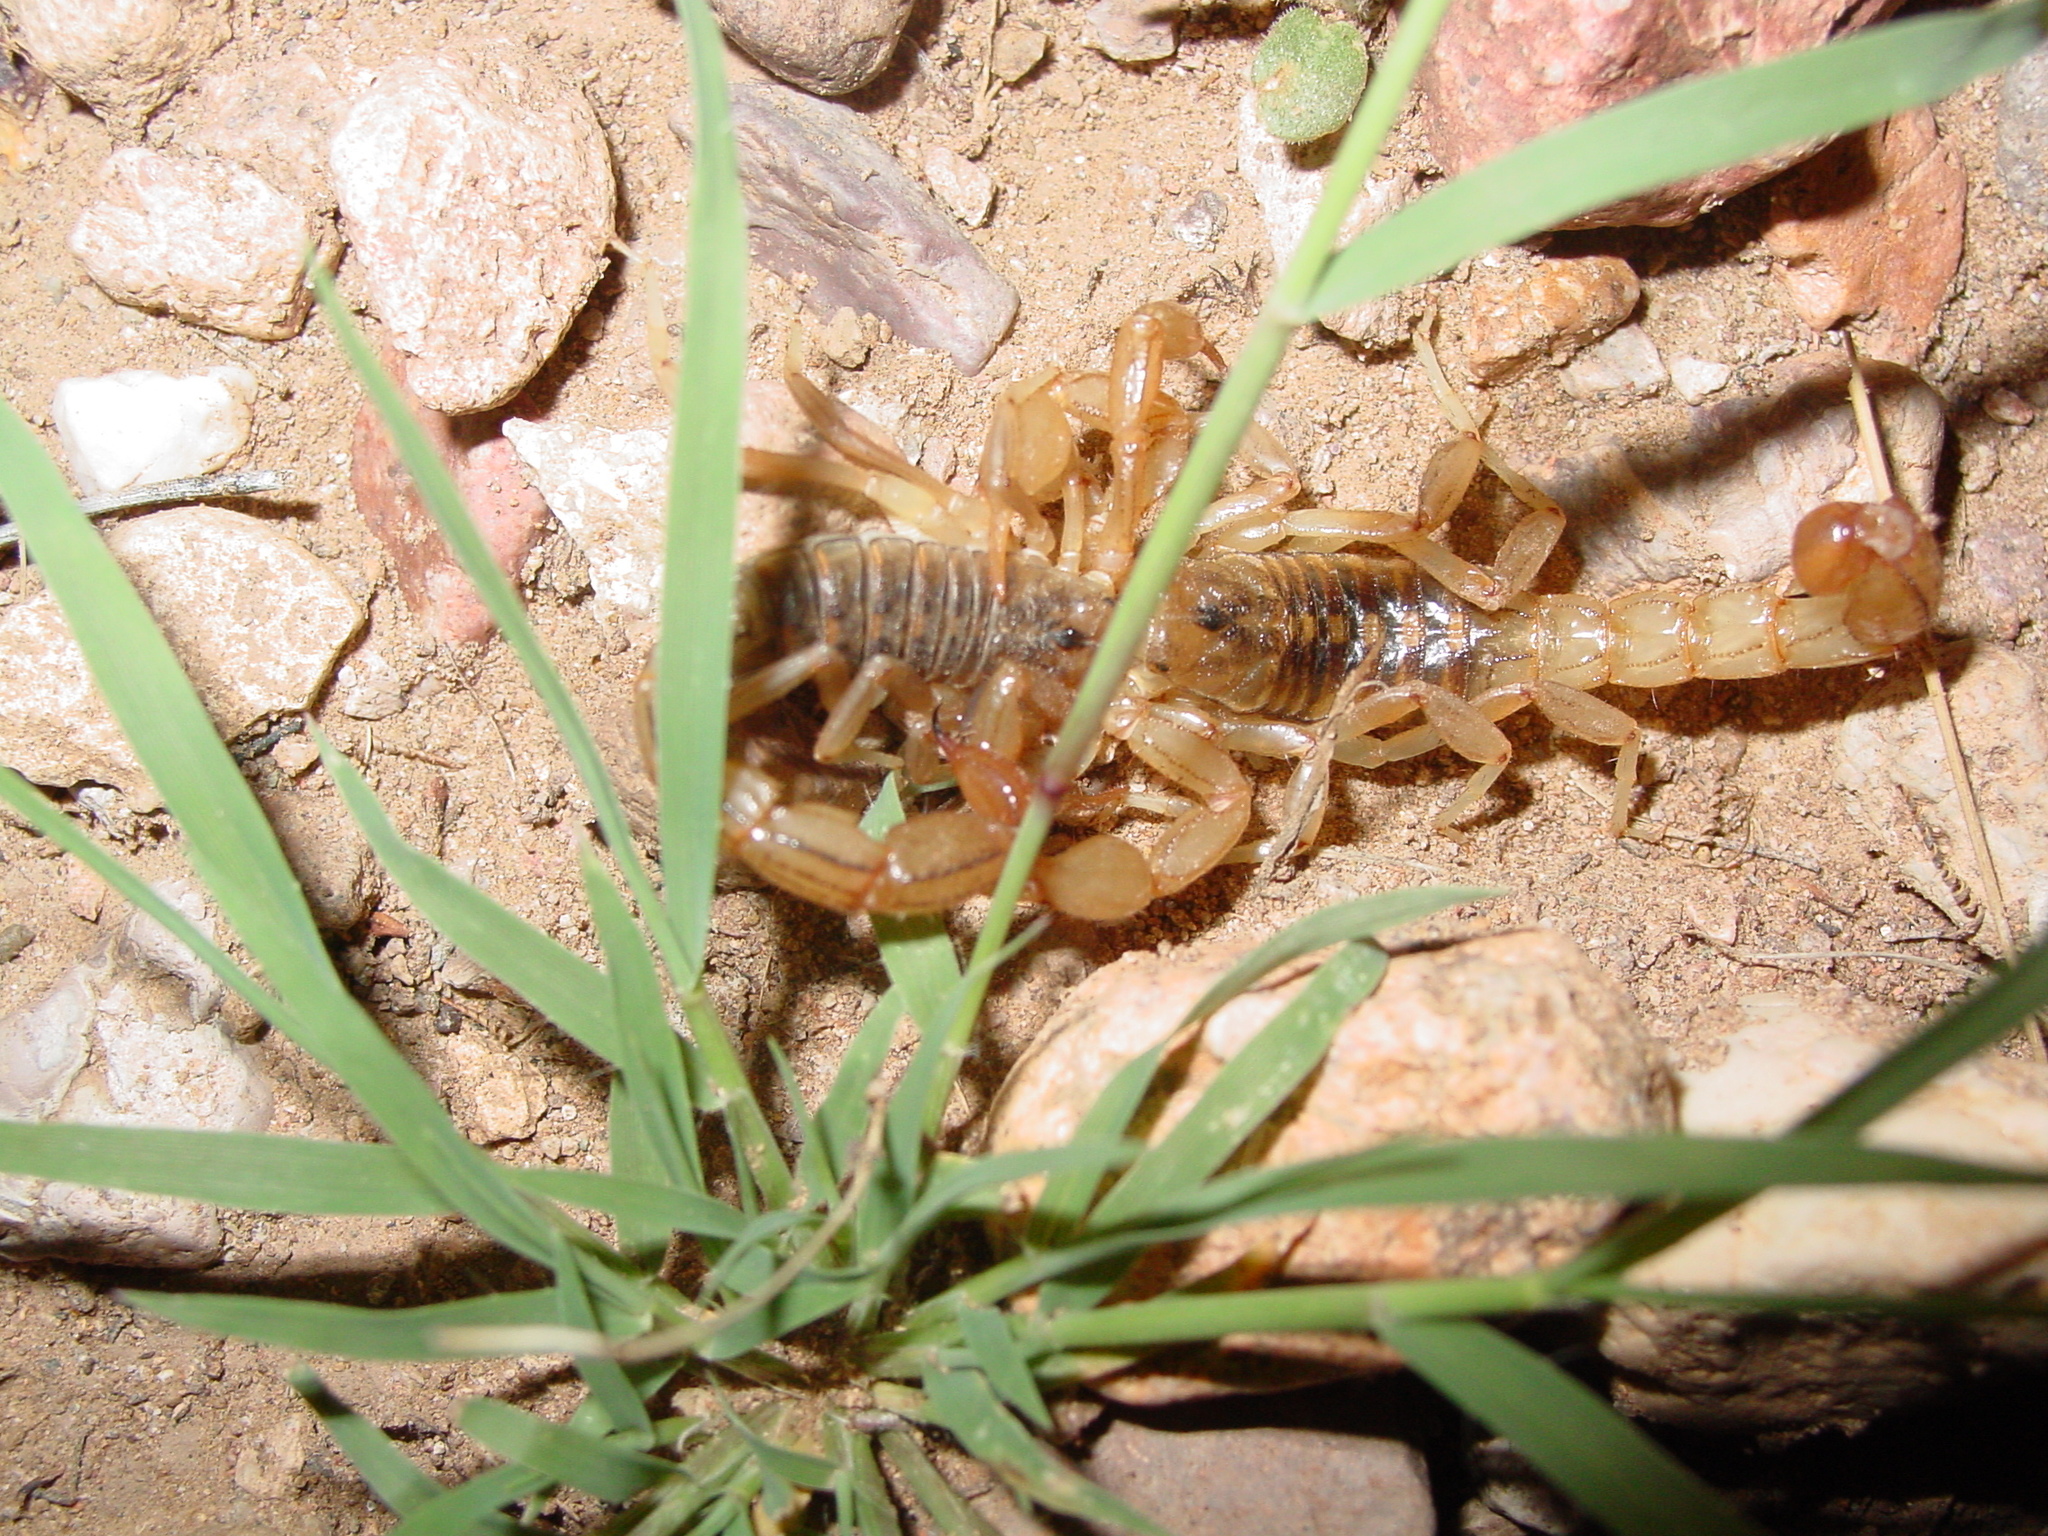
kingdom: Animalia
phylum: Arthropoda
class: Arachnida
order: Scorpiones
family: Vaejovidae
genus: Paravaejovis
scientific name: Paravaejovis spinigerus
